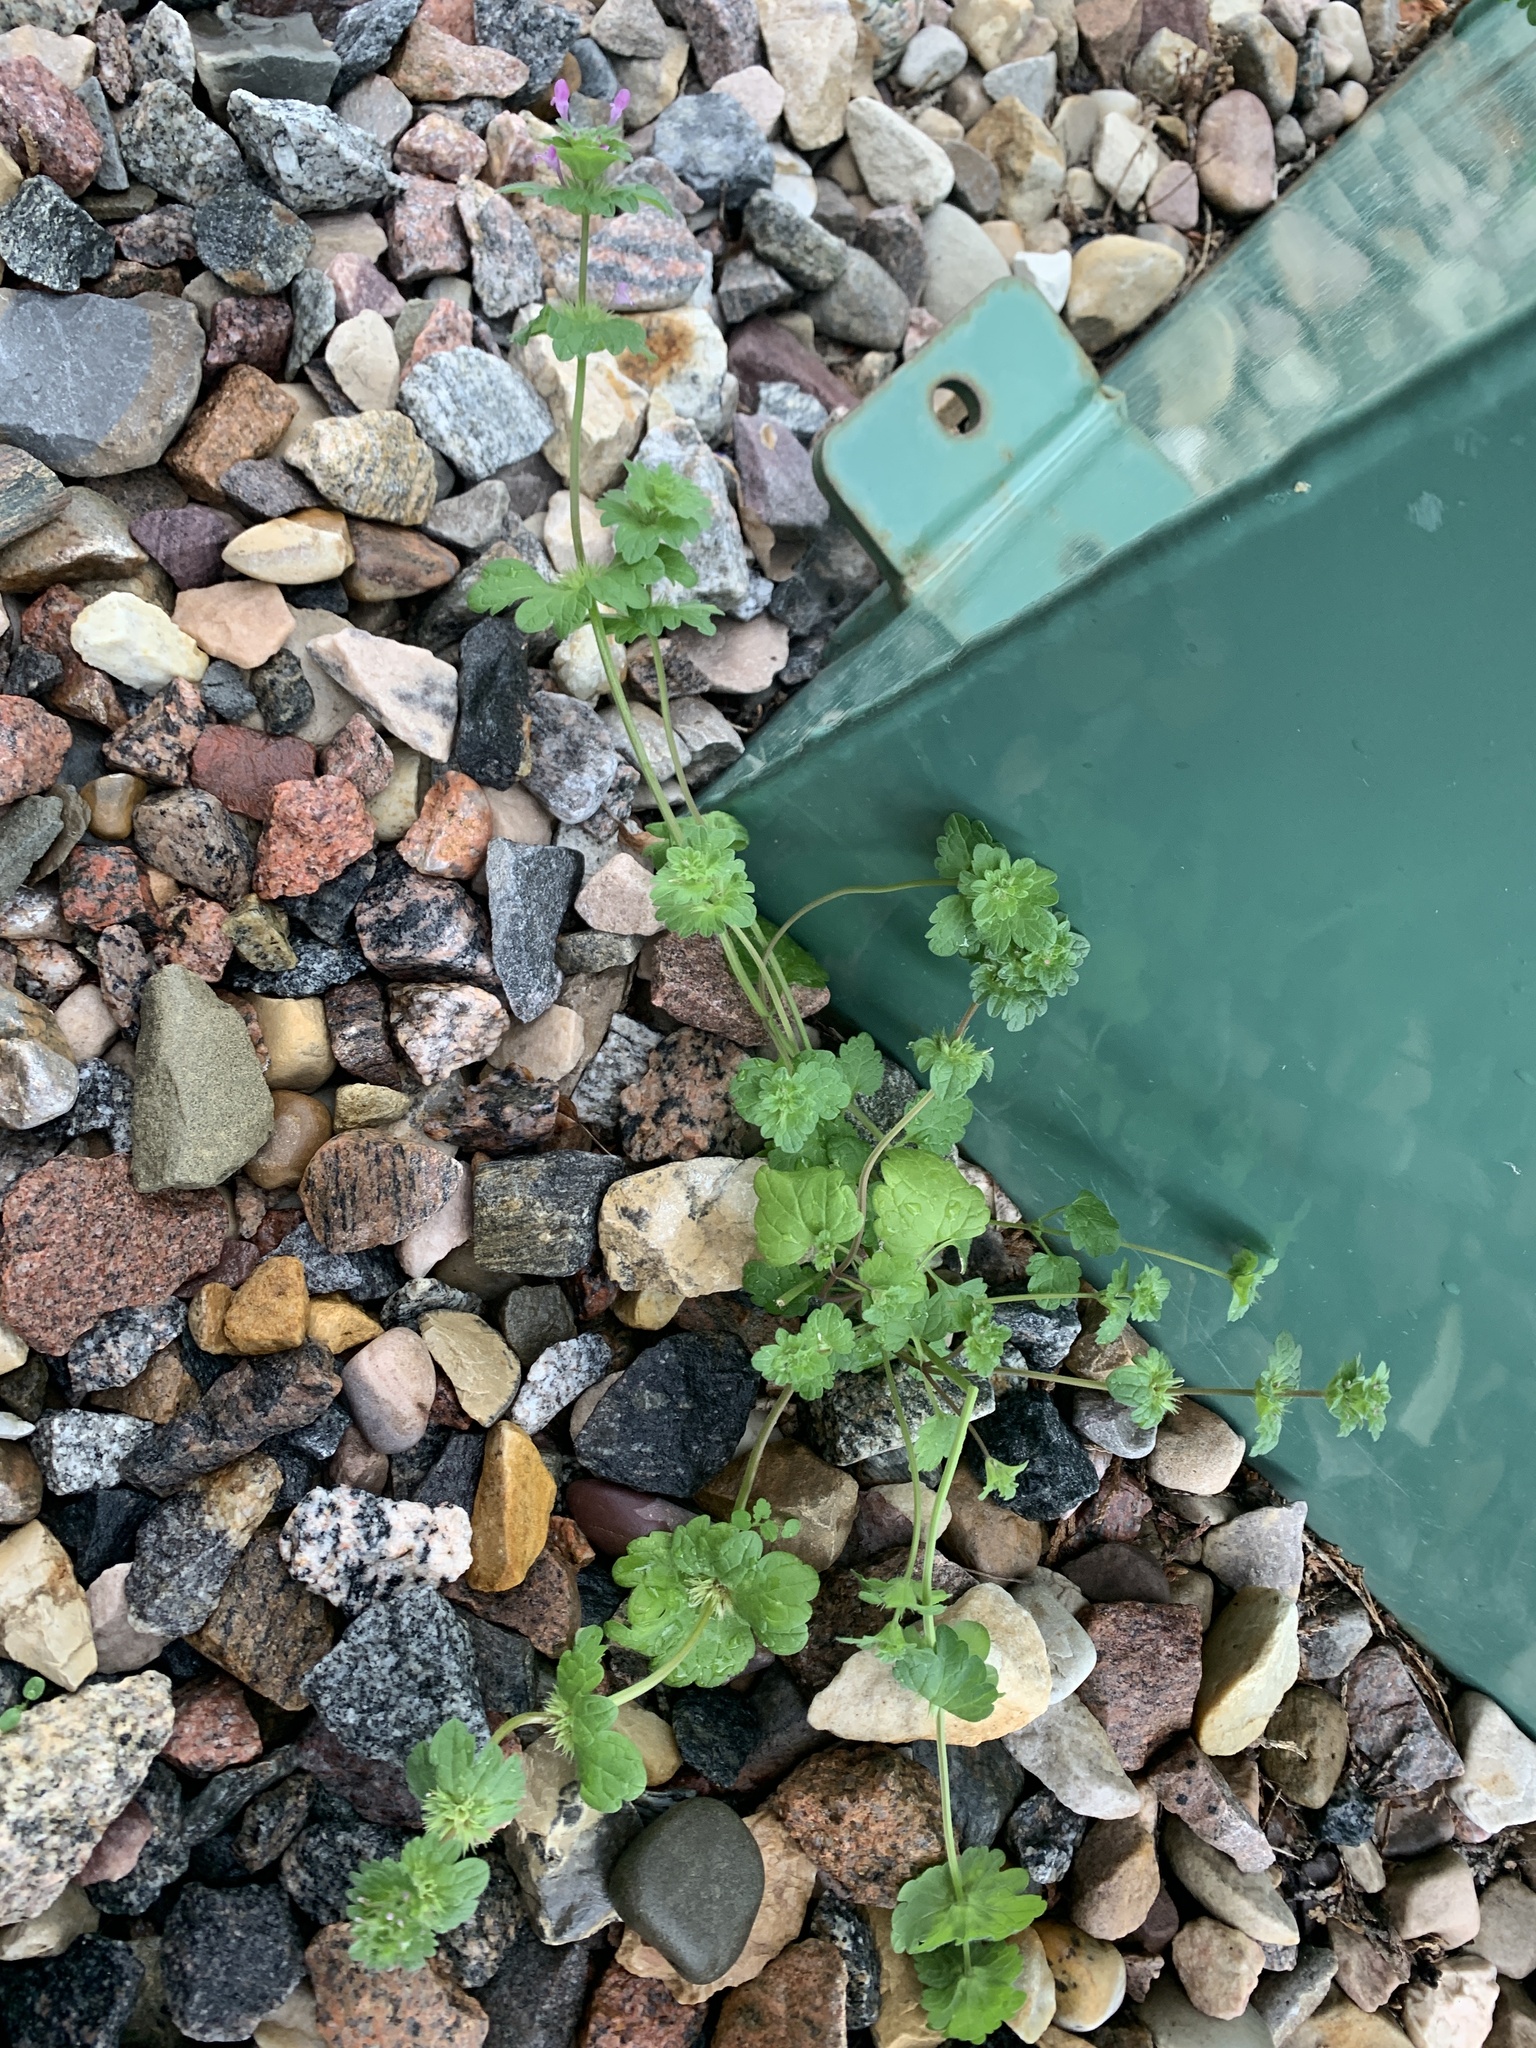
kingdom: Plantae
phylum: Tracheophyta
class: Magnoliopsida
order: Lamiales
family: Lamiaceae
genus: Lamium
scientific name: Lamium amplexicaule
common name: Henbit dead-nettle
